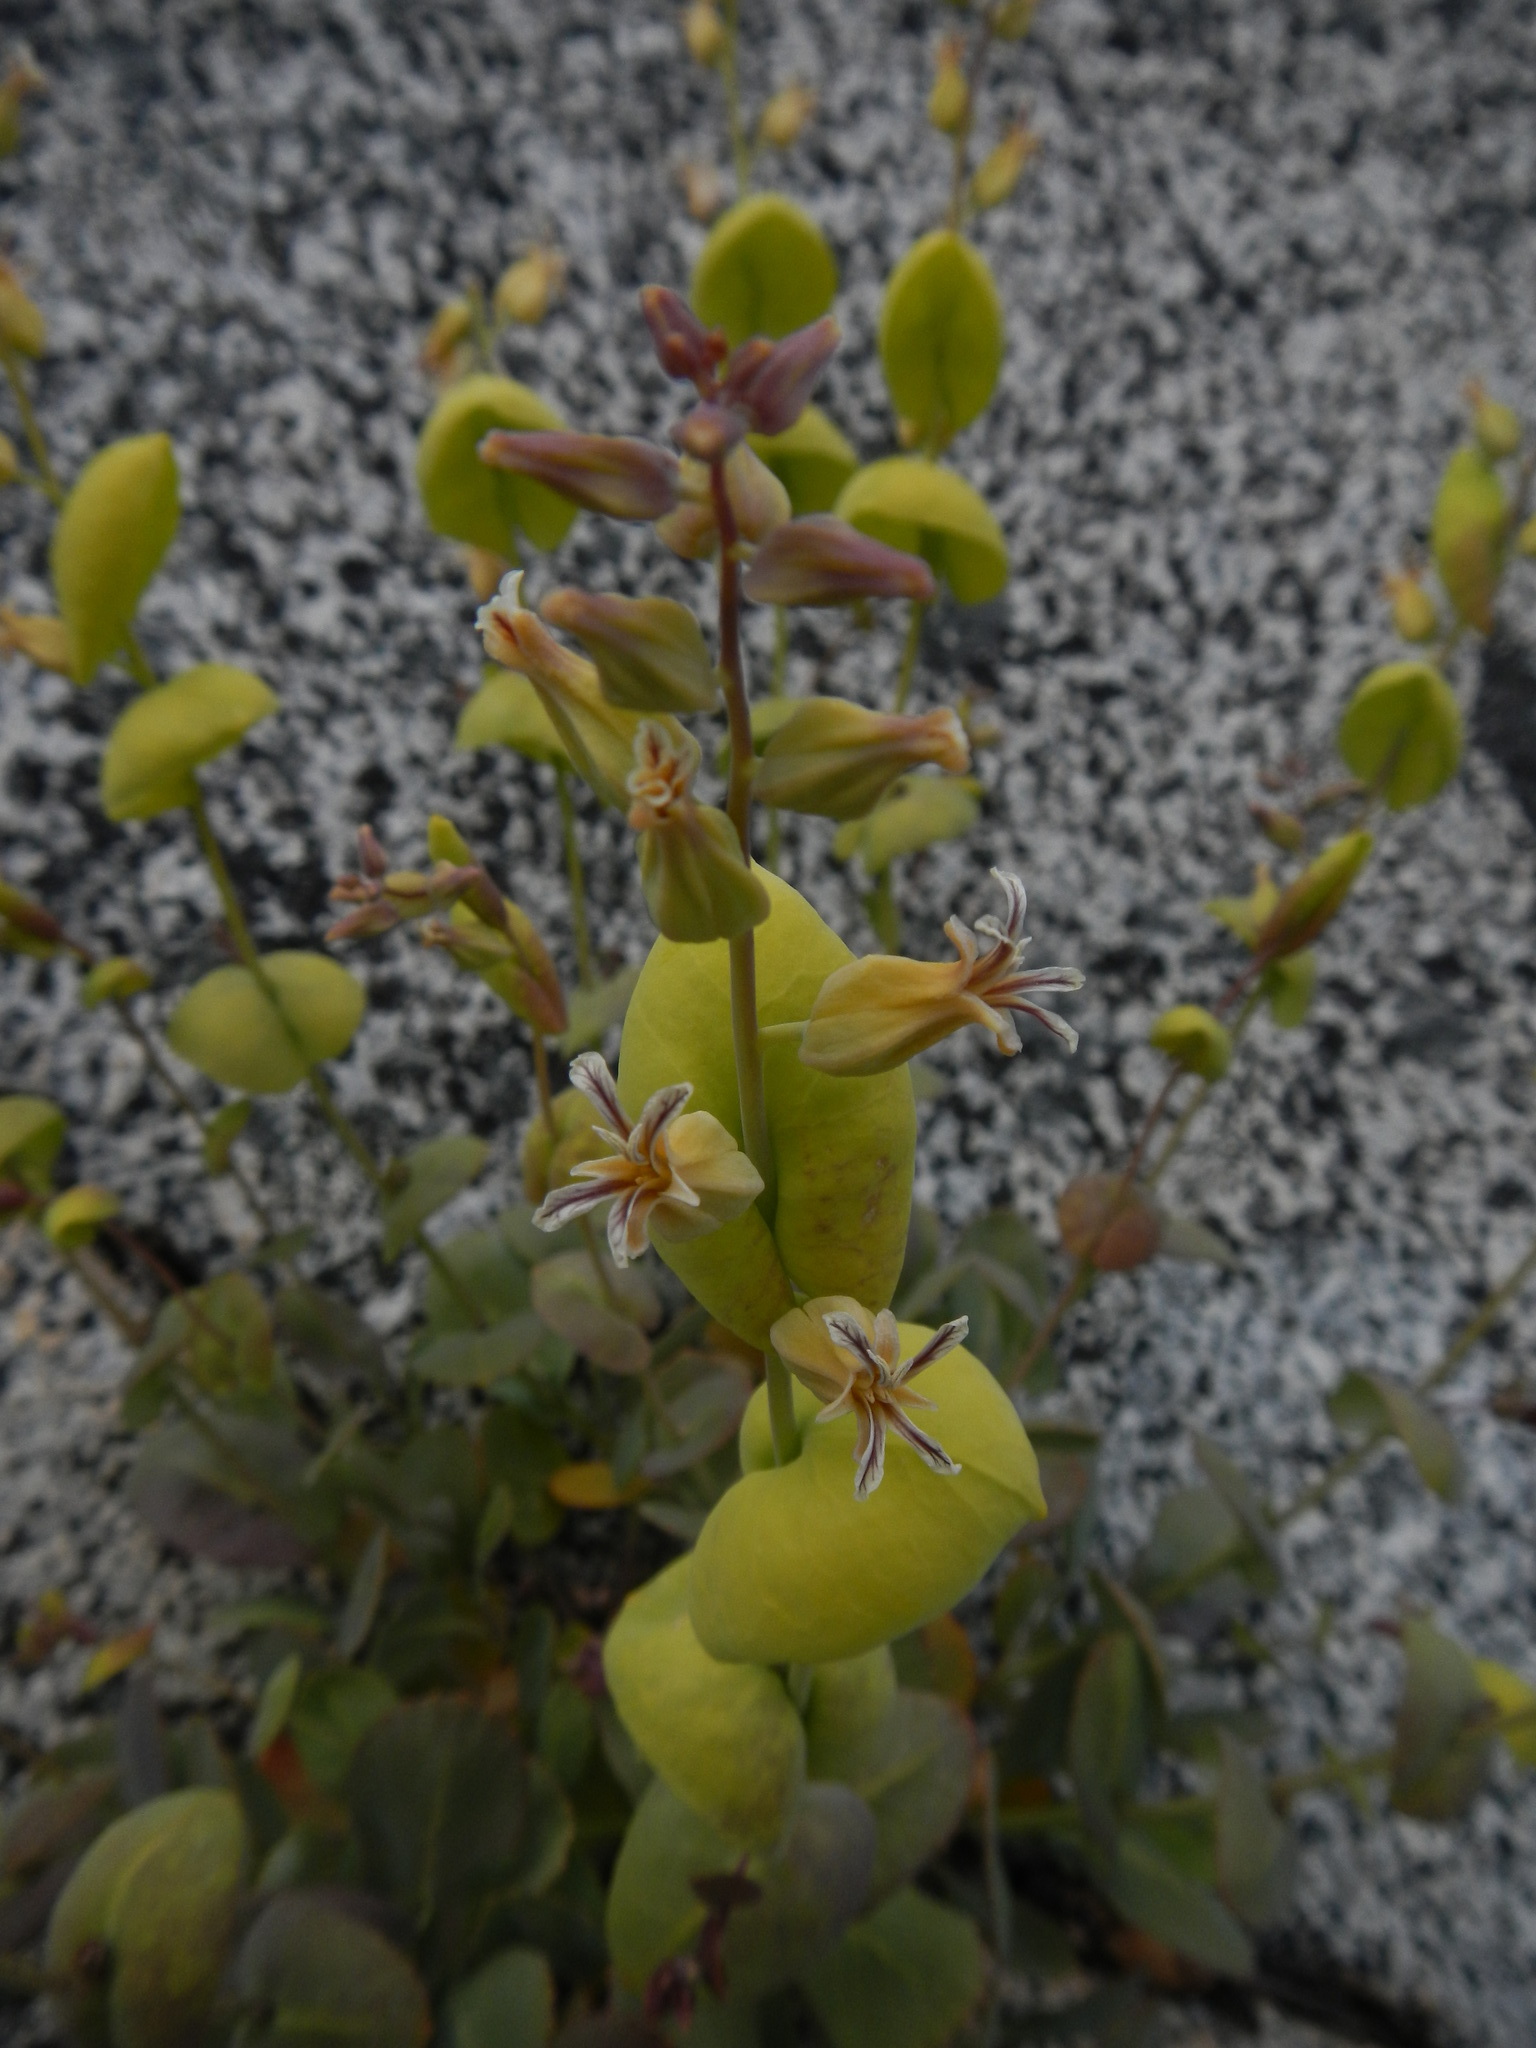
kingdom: Plantae
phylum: Tracheophyta
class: Magnoliopsida
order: Brassicales
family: Brassicaceae
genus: Streptanthus
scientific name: Streptanthus tortuosus
